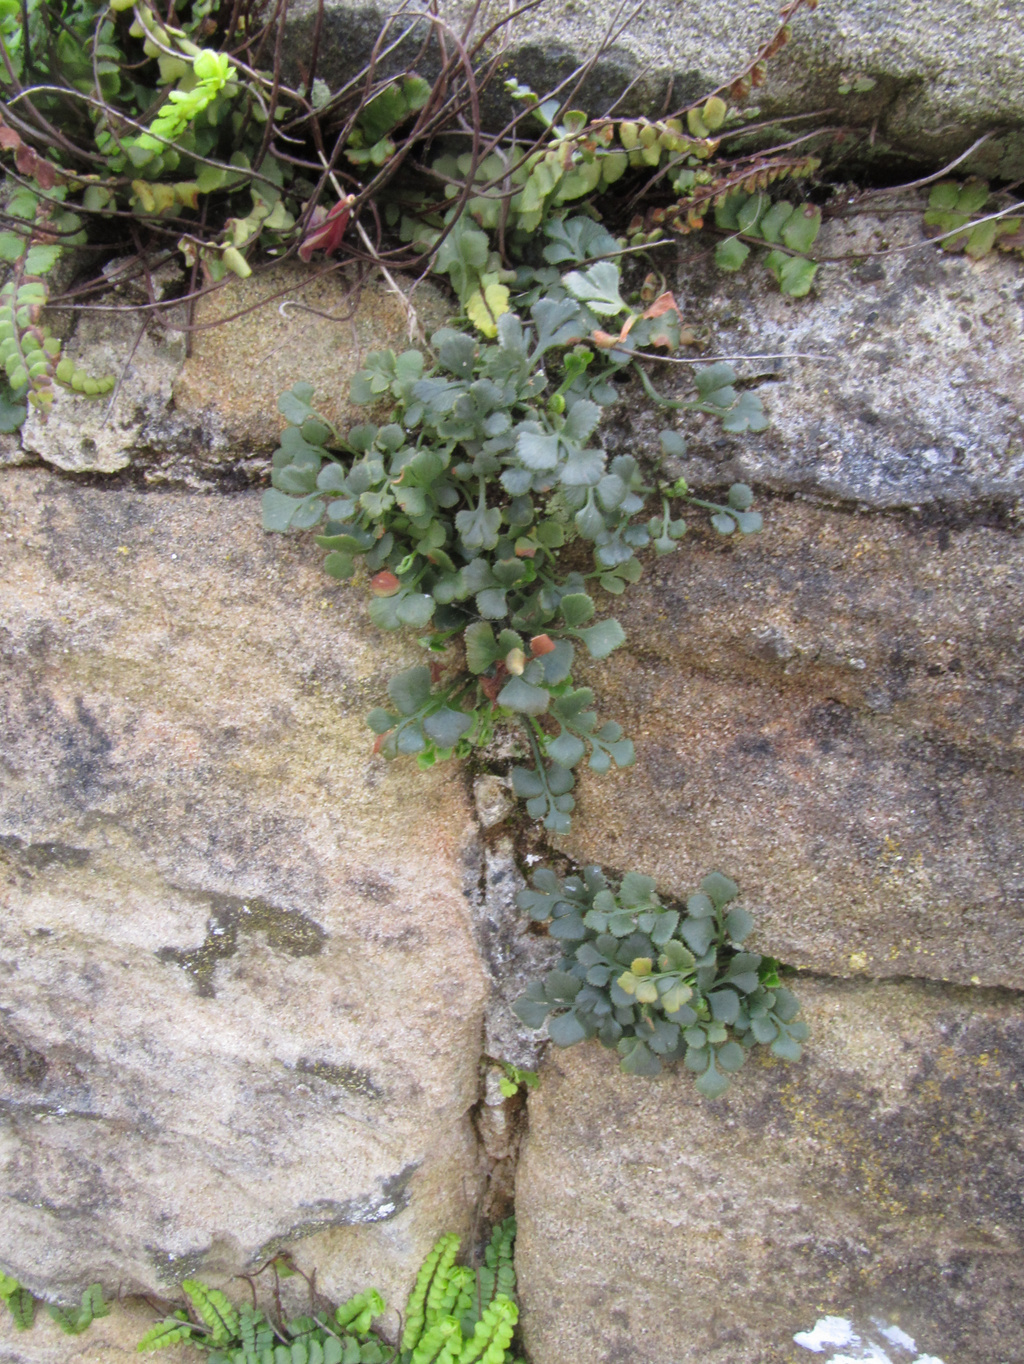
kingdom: Plantae
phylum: Tracheophyta
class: Polypodiopsida
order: Polypodiales
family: Aspleniaceae
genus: Asplenium
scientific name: Asplenium ruta-muraria
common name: Wall-rue
